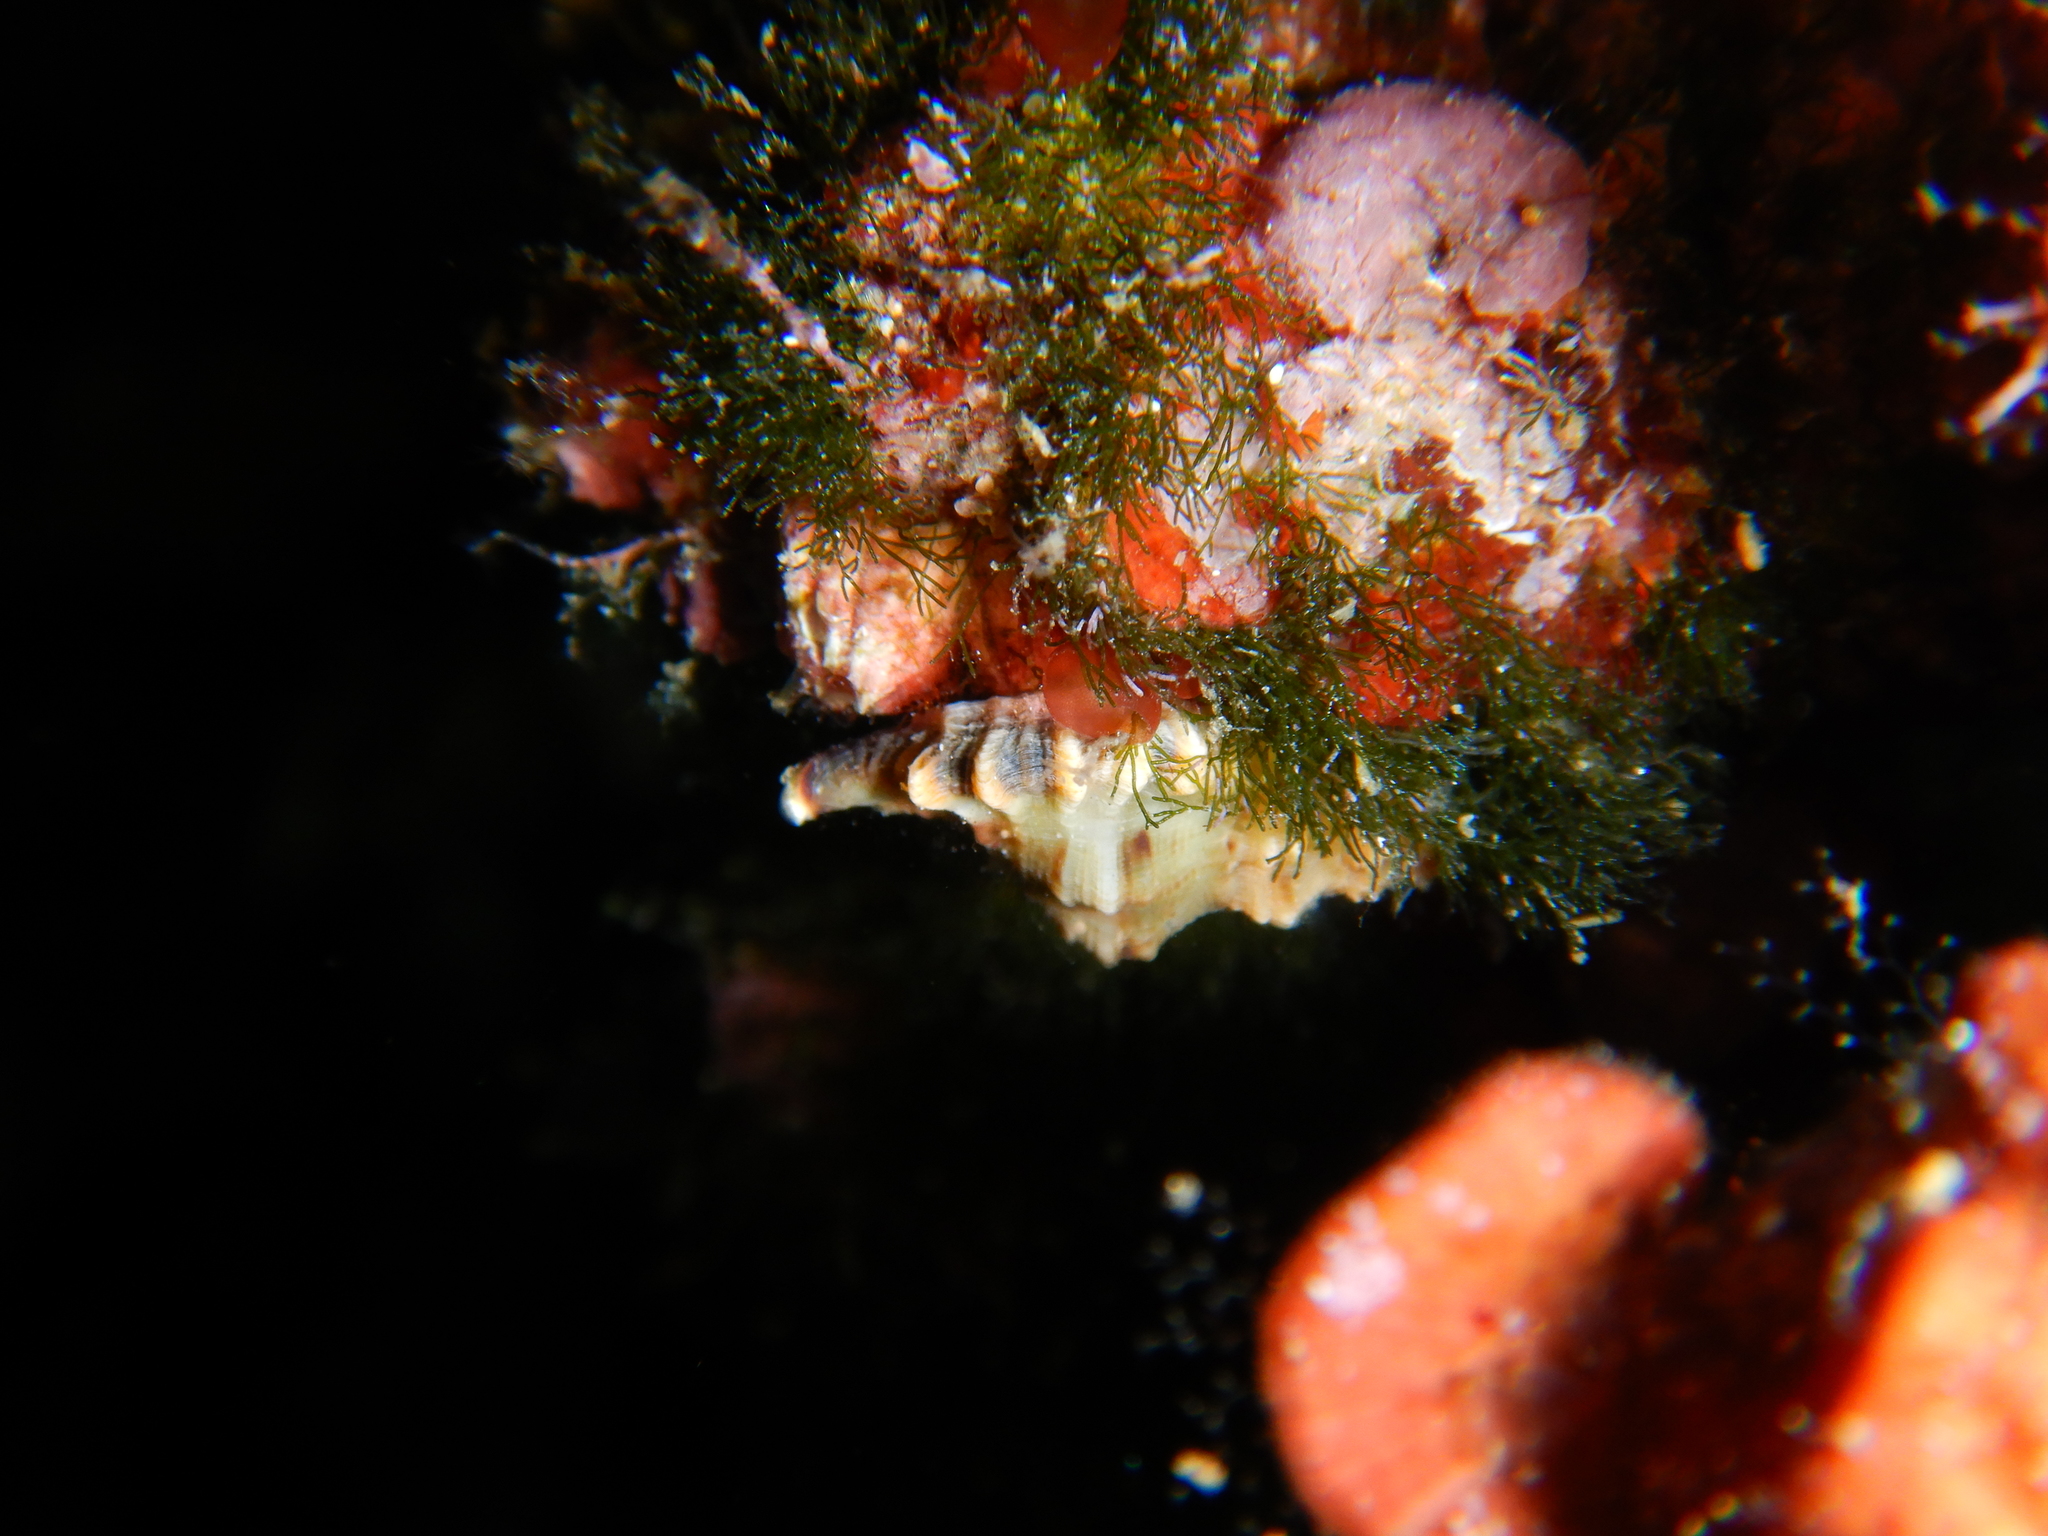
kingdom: Animalia
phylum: Mollusca
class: Gastropoda
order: Littorinimorpha
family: Cymatiidae
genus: Monoplex
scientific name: Monoplex corrugatus
